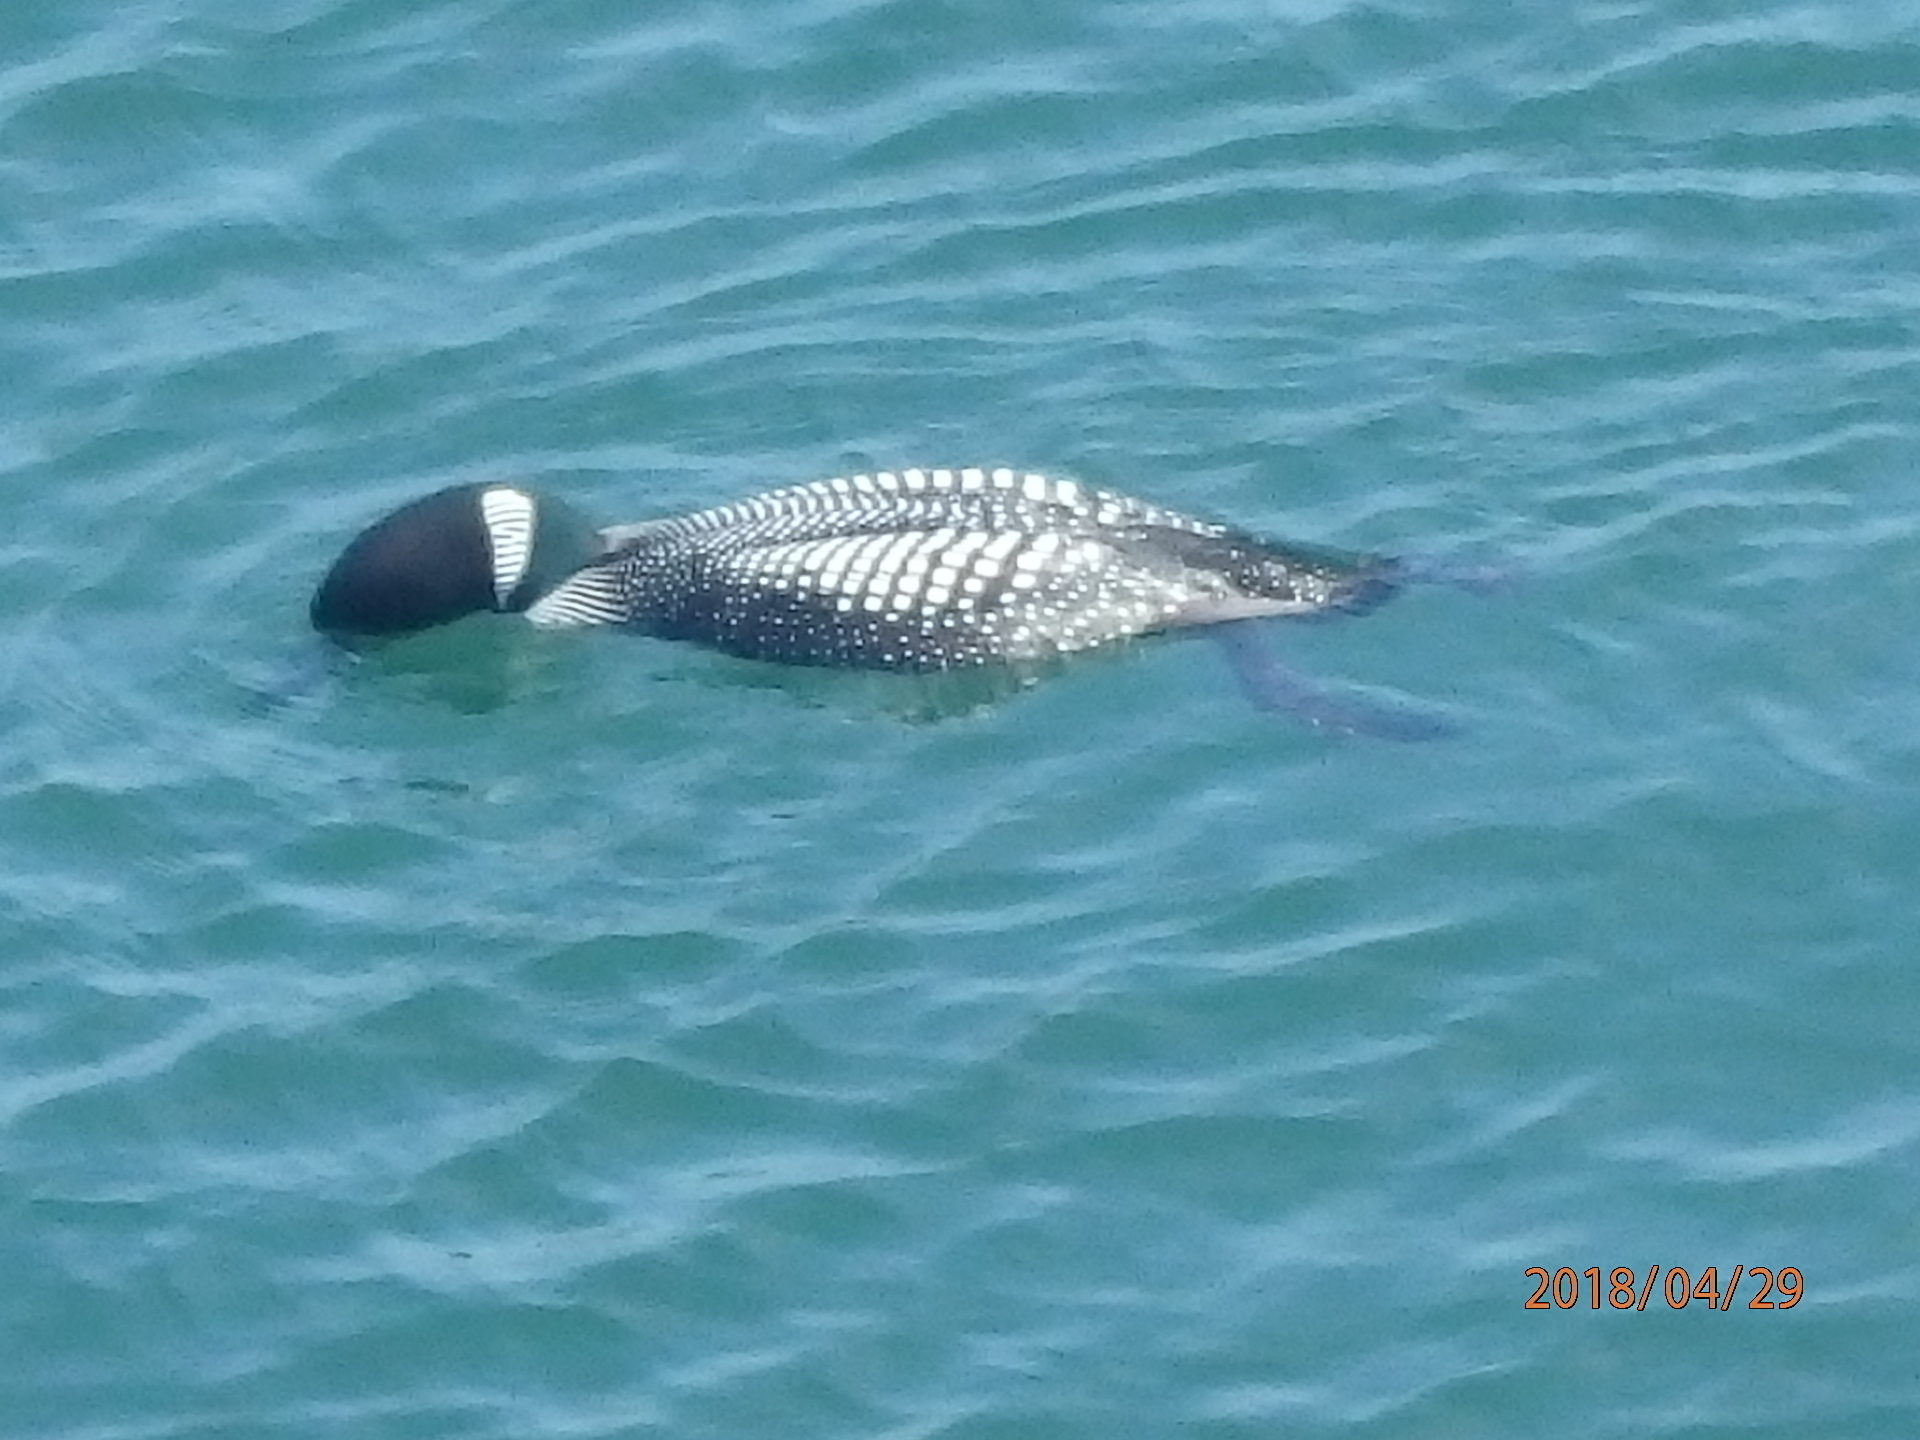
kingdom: Animalia
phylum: Chordata
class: Aves
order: Gaviiformes
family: Gaviidae
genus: Gavia
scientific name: Gavia immer
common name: Common loon
